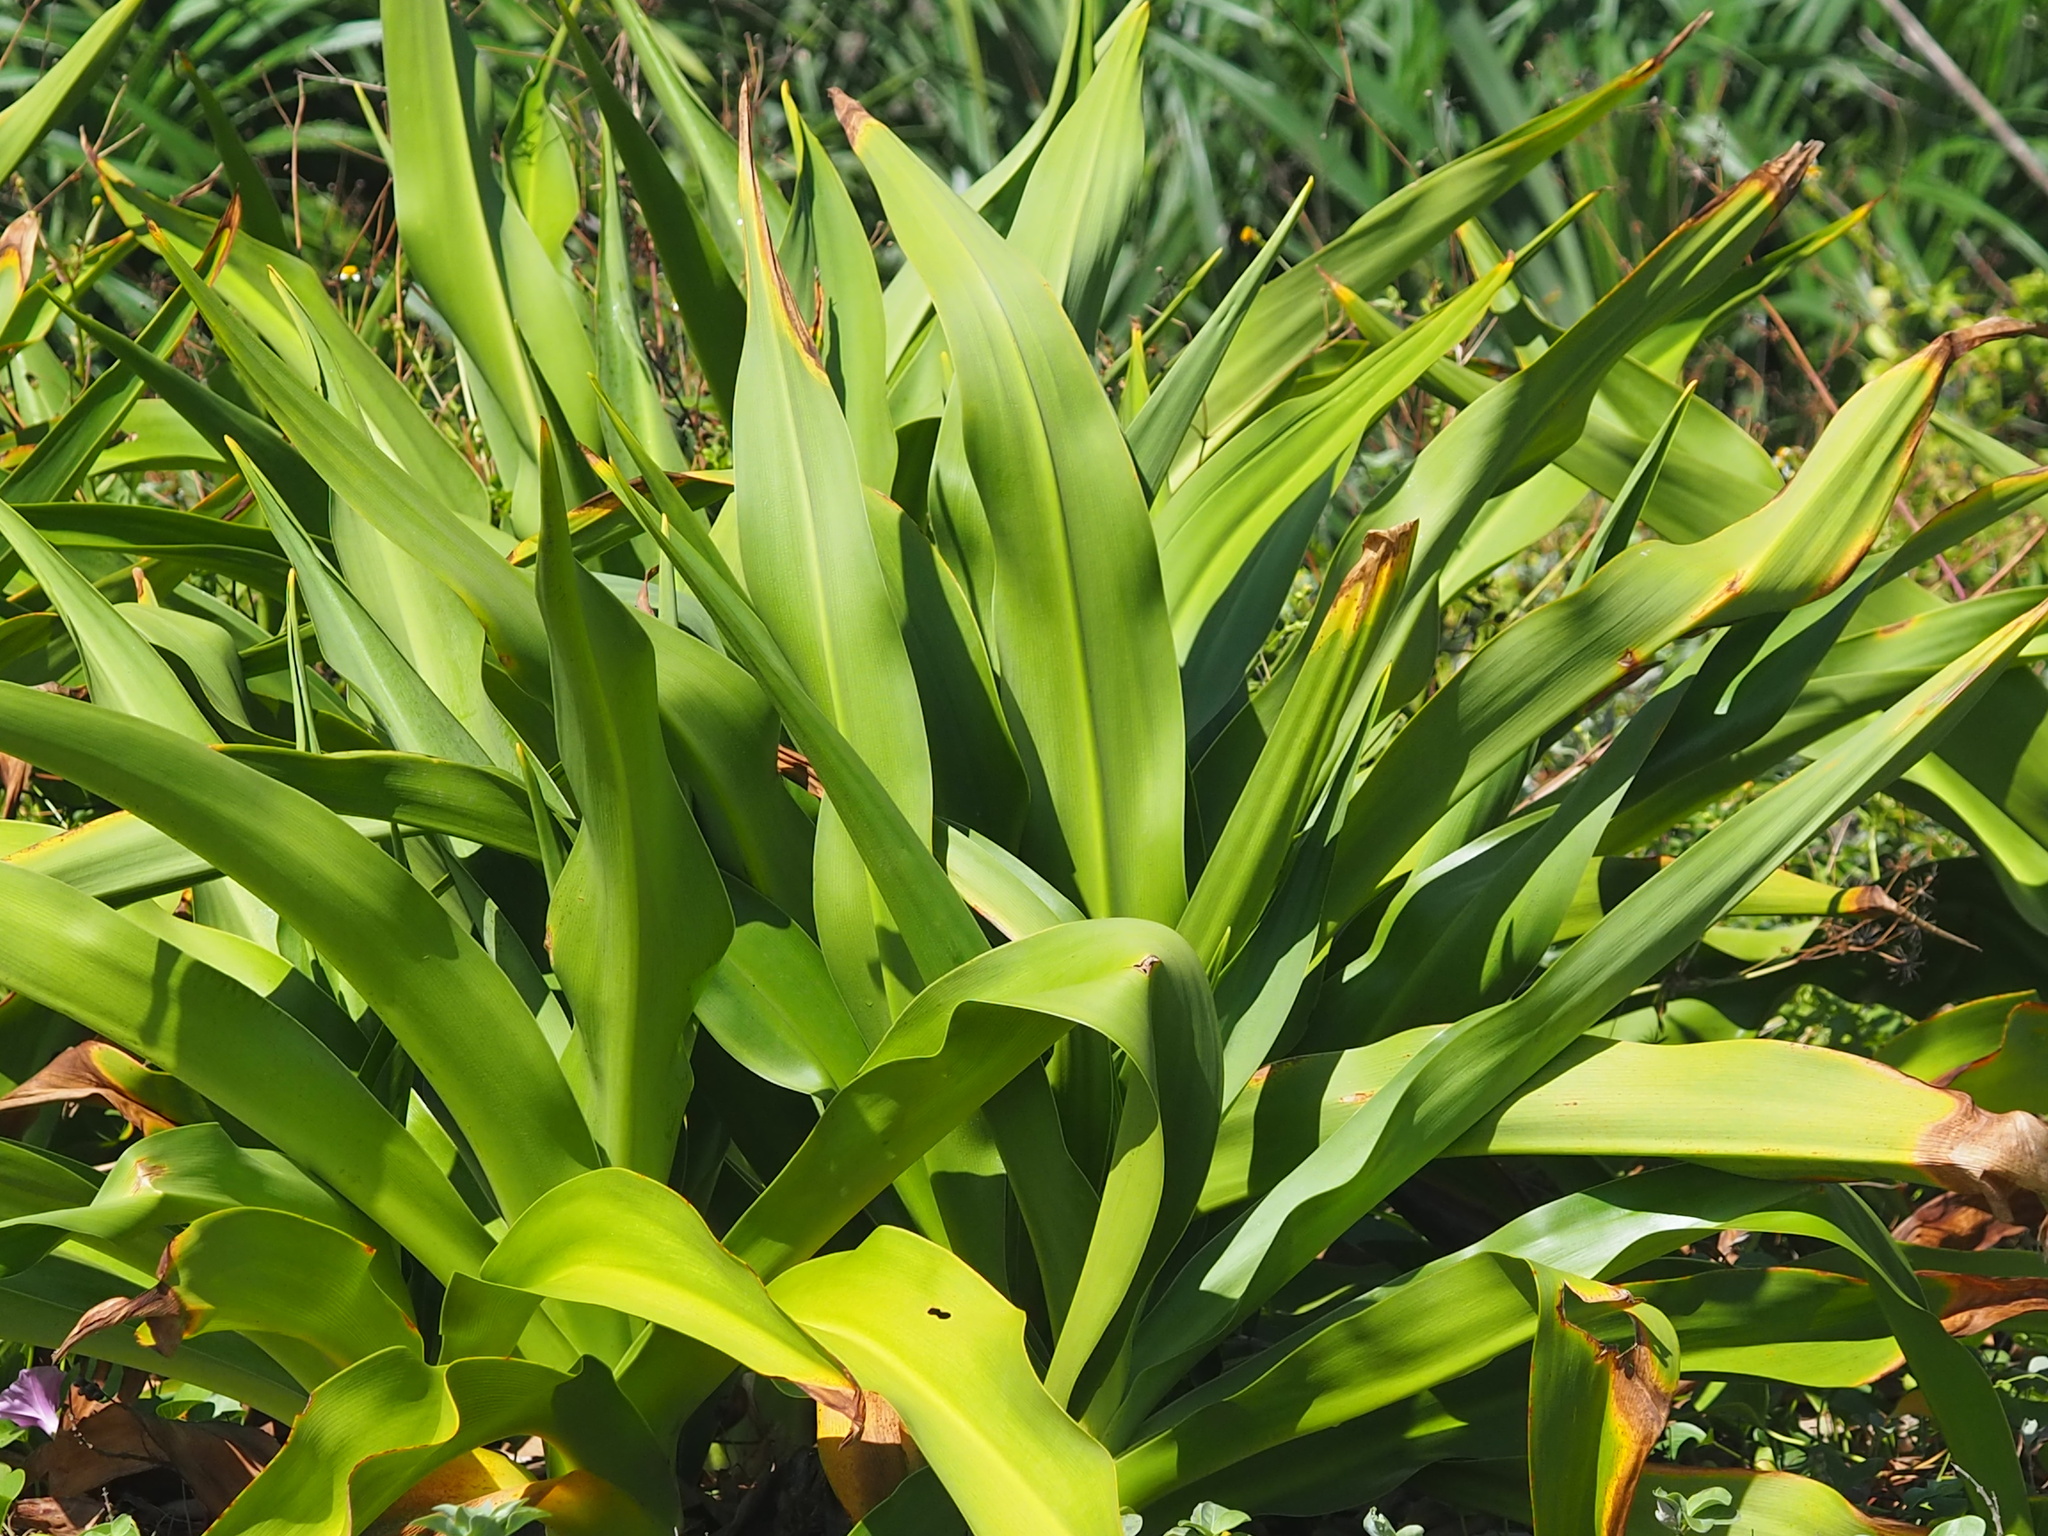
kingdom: Plantae
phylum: Tracheophyta
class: Liliopsida
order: Asparagales
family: Amaryllidaceae
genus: Crinum
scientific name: Crinum asiaticum
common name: Poisonbulb
